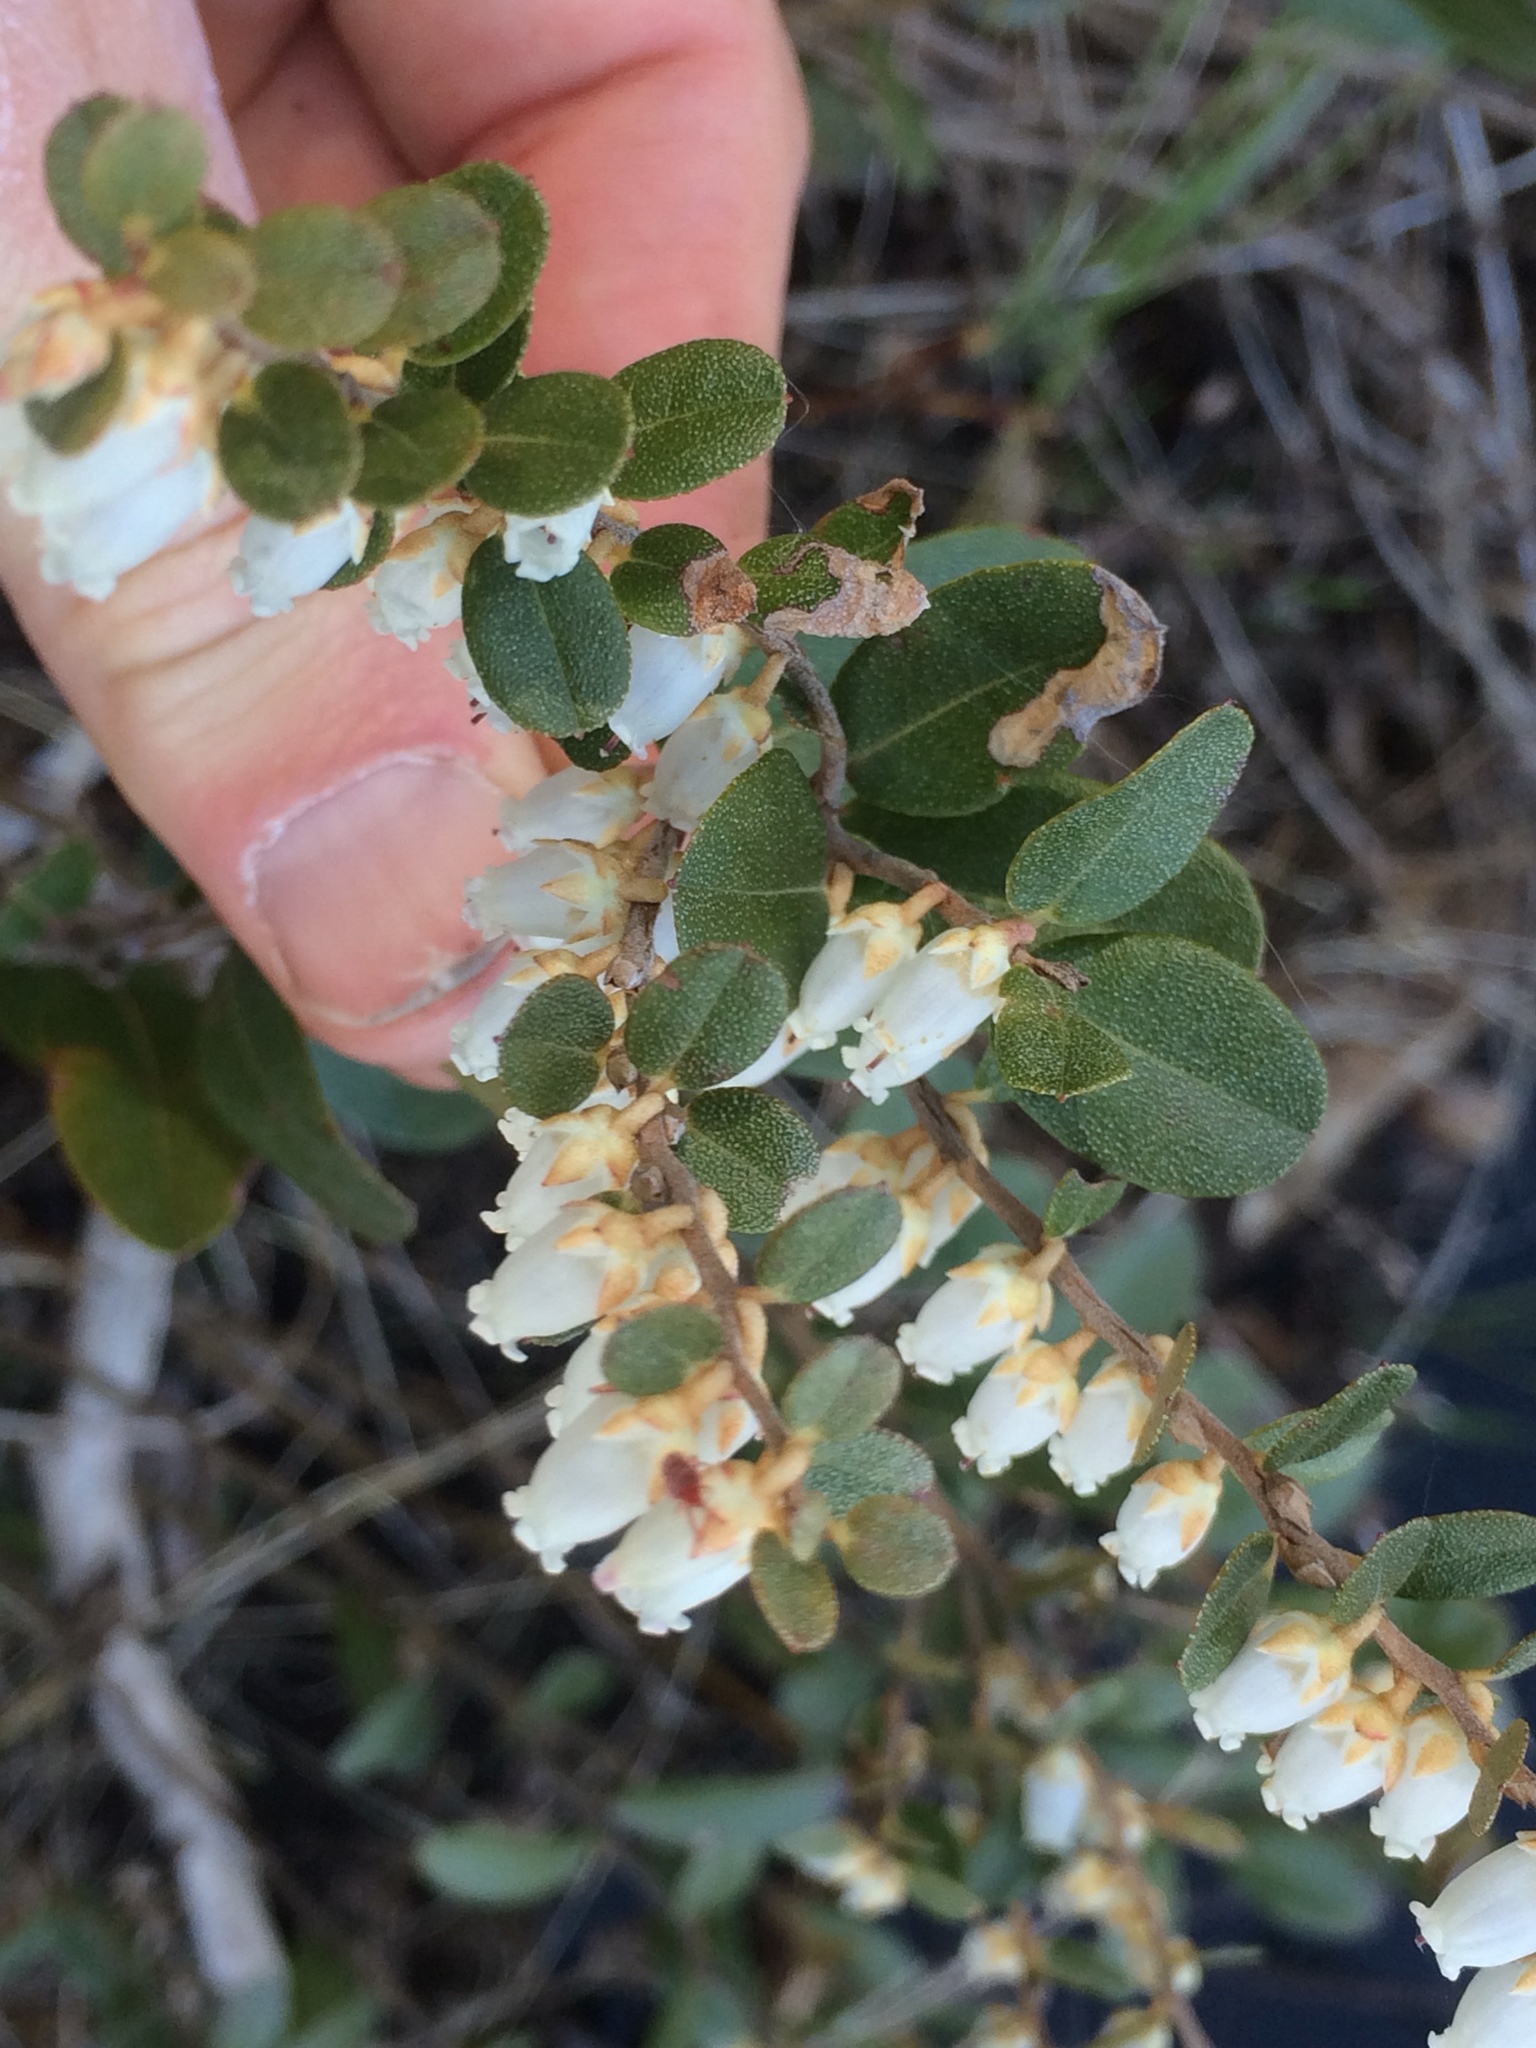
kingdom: Plantae
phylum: Tracheophyta
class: Magnoliopsida
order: Ericales
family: Ericaceae
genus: Chamaedaphne
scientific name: Chamaedaphne calyculata
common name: Leatherleaf
